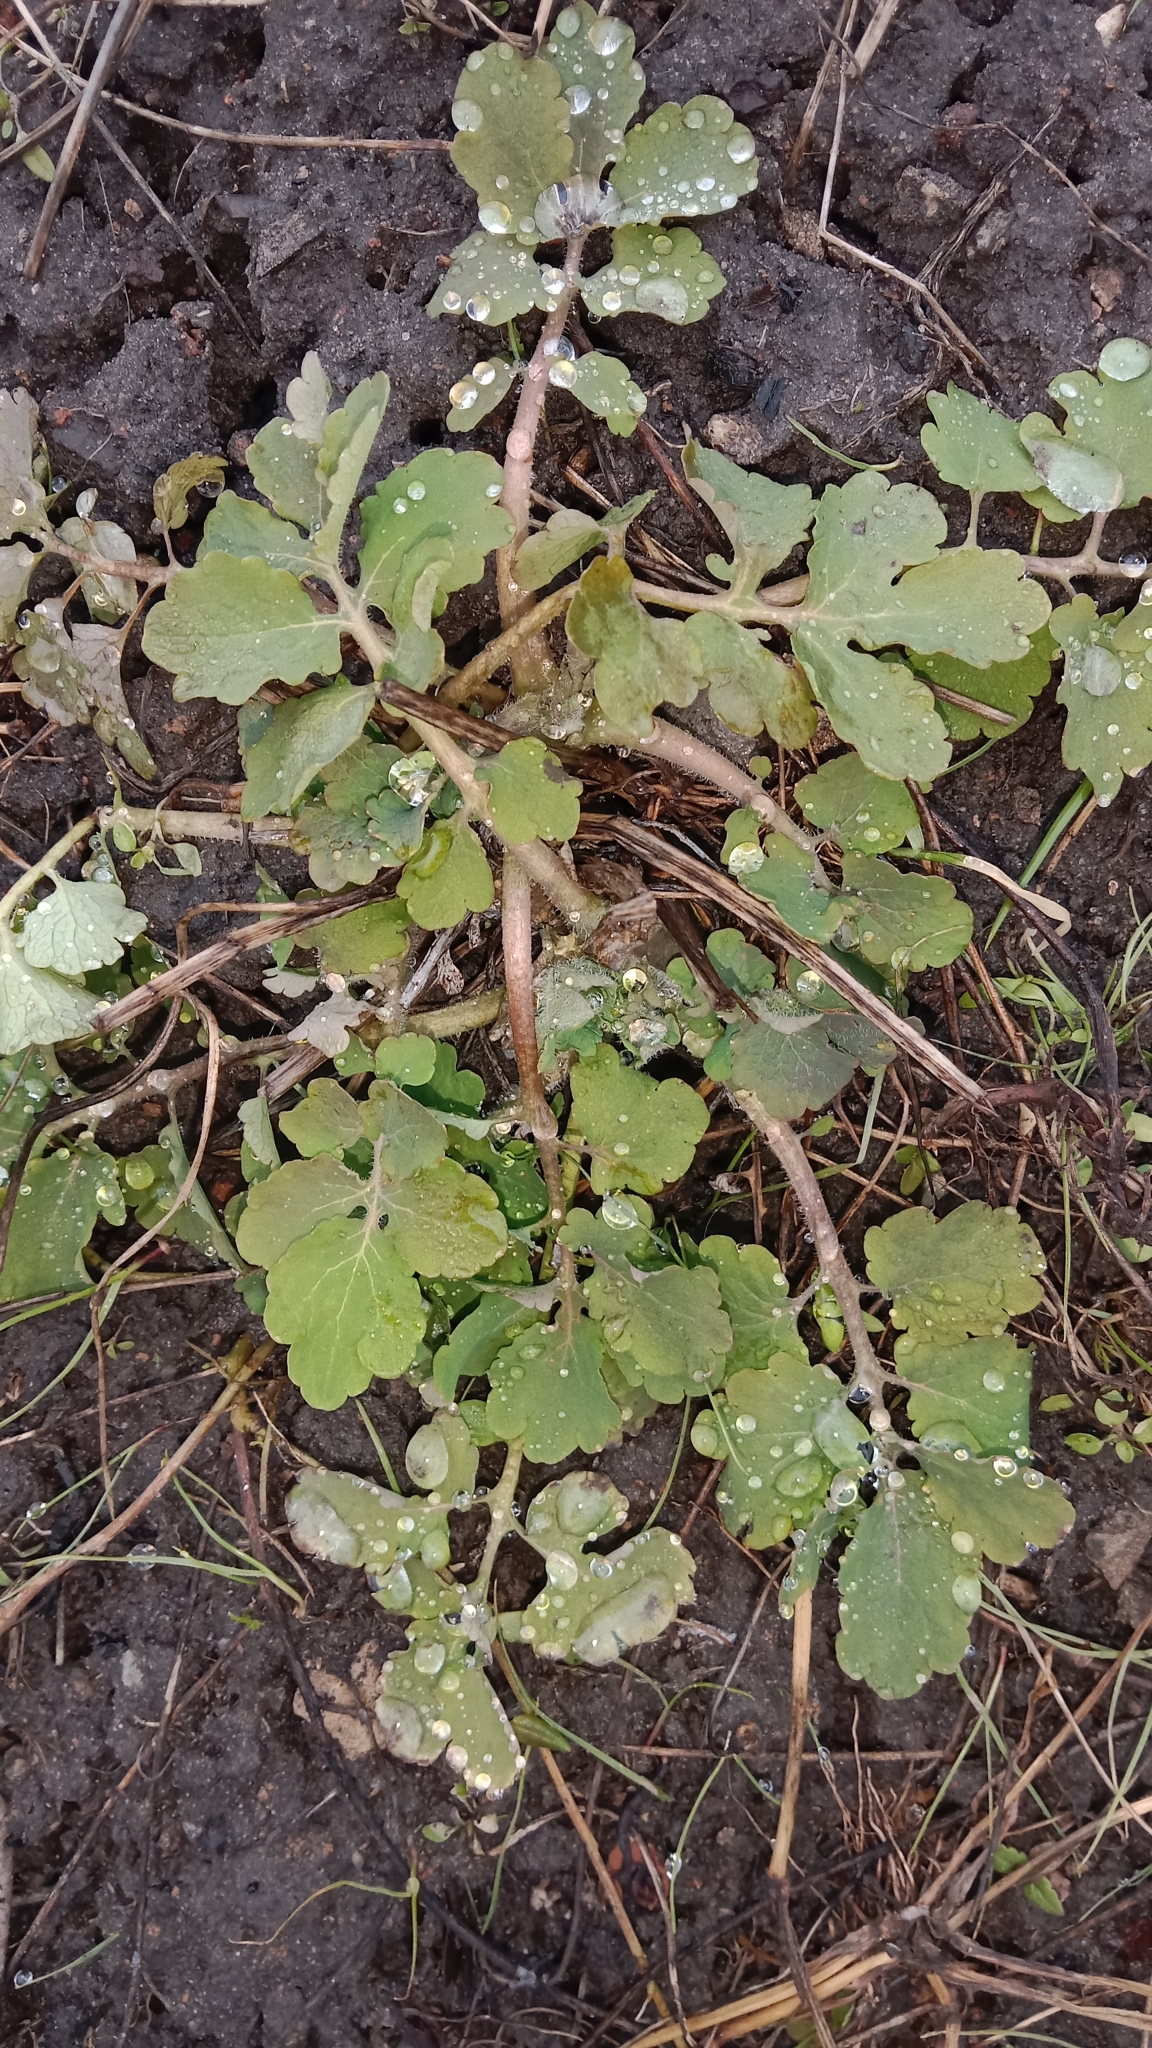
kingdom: Plantae
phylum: Tracheophyta
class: Magnoliopsida
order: Ranunculales
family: Papaveraceae
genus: Chelidonium
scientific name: Chelidonium majus
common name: Greater celandine
